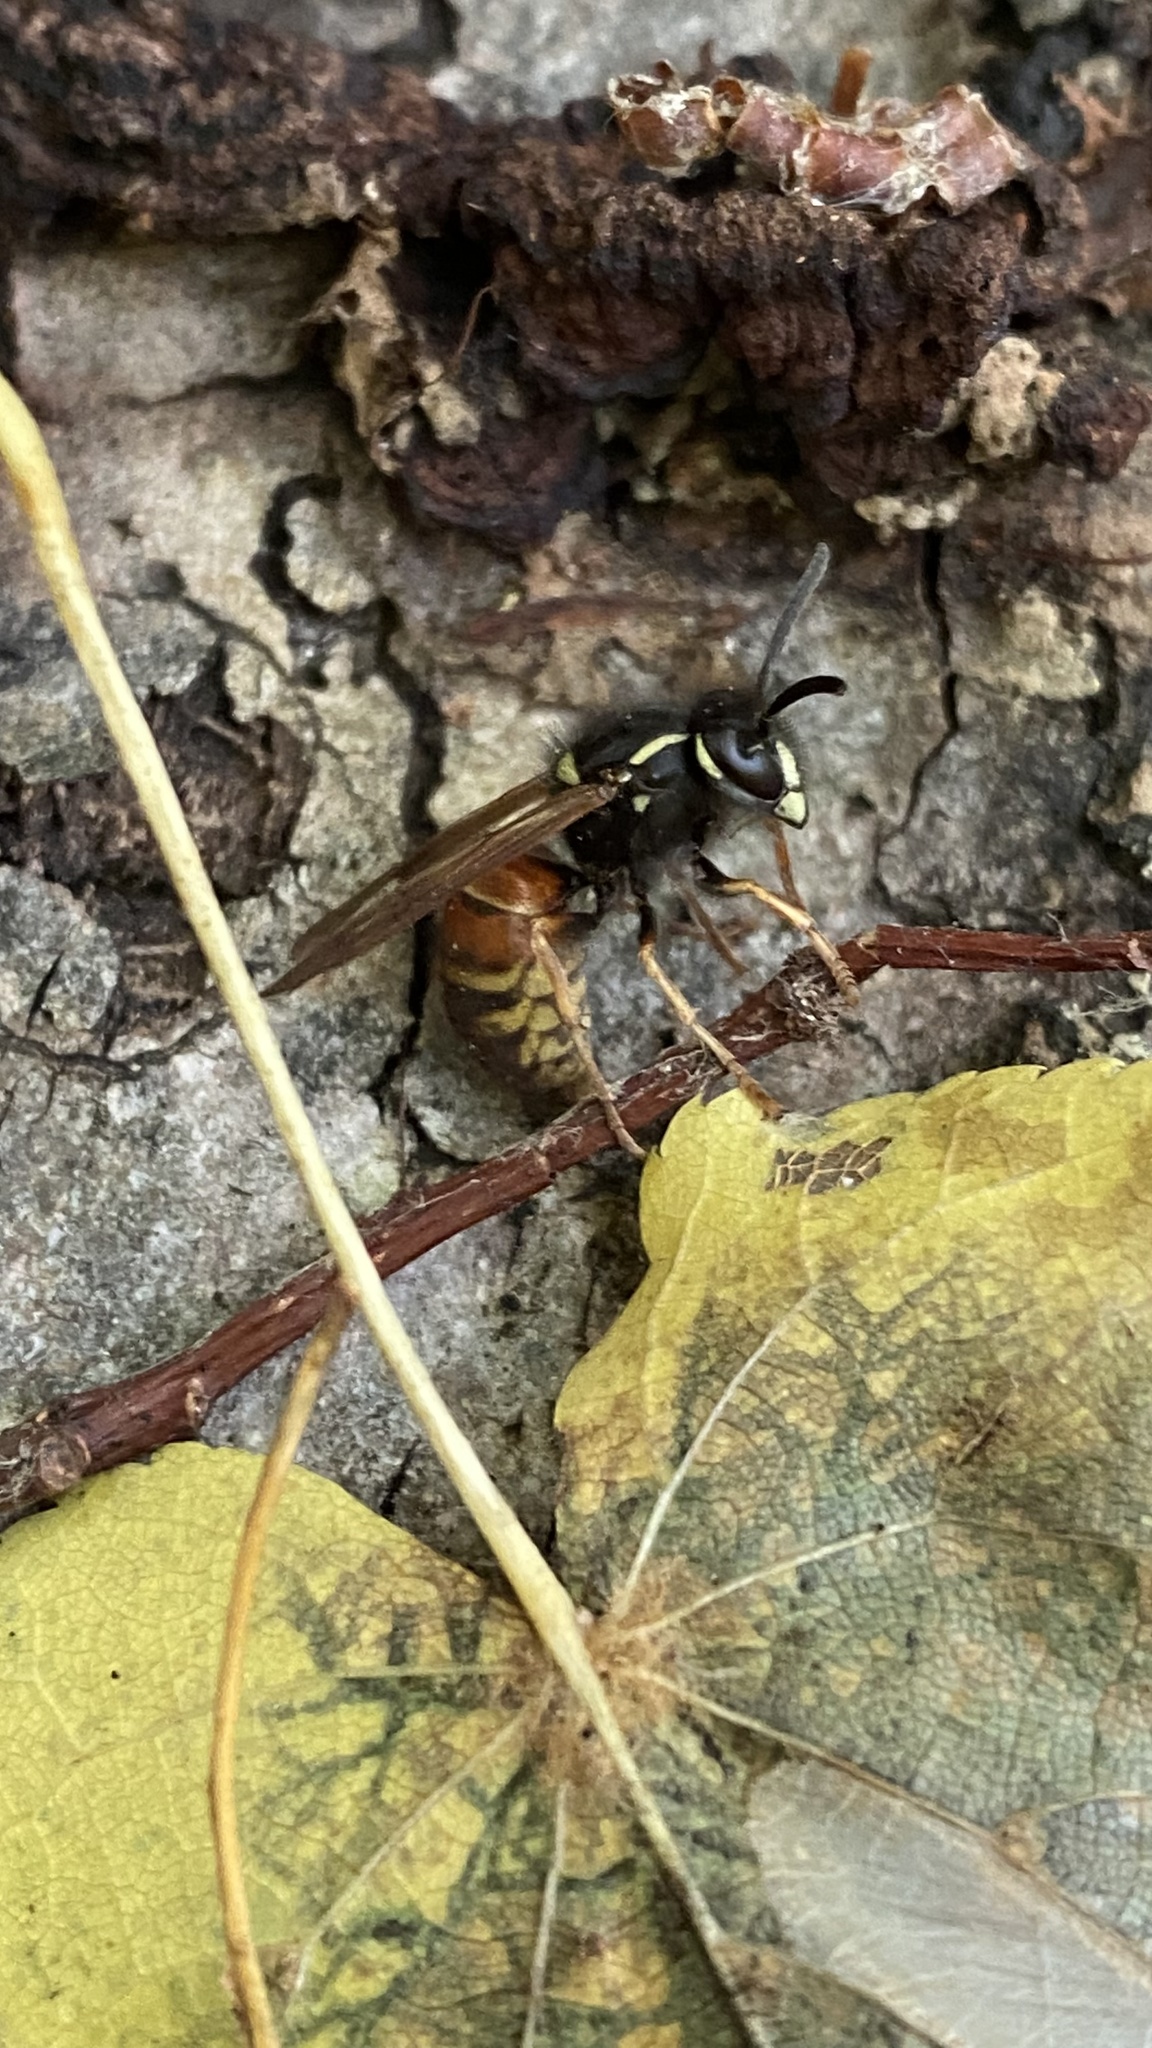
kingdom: Animalia
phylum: Arthropoda
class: Insecta
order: Hymenoptera
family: Vespidae
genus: Vespula
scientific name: Vespula rufa
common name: Red wasp
